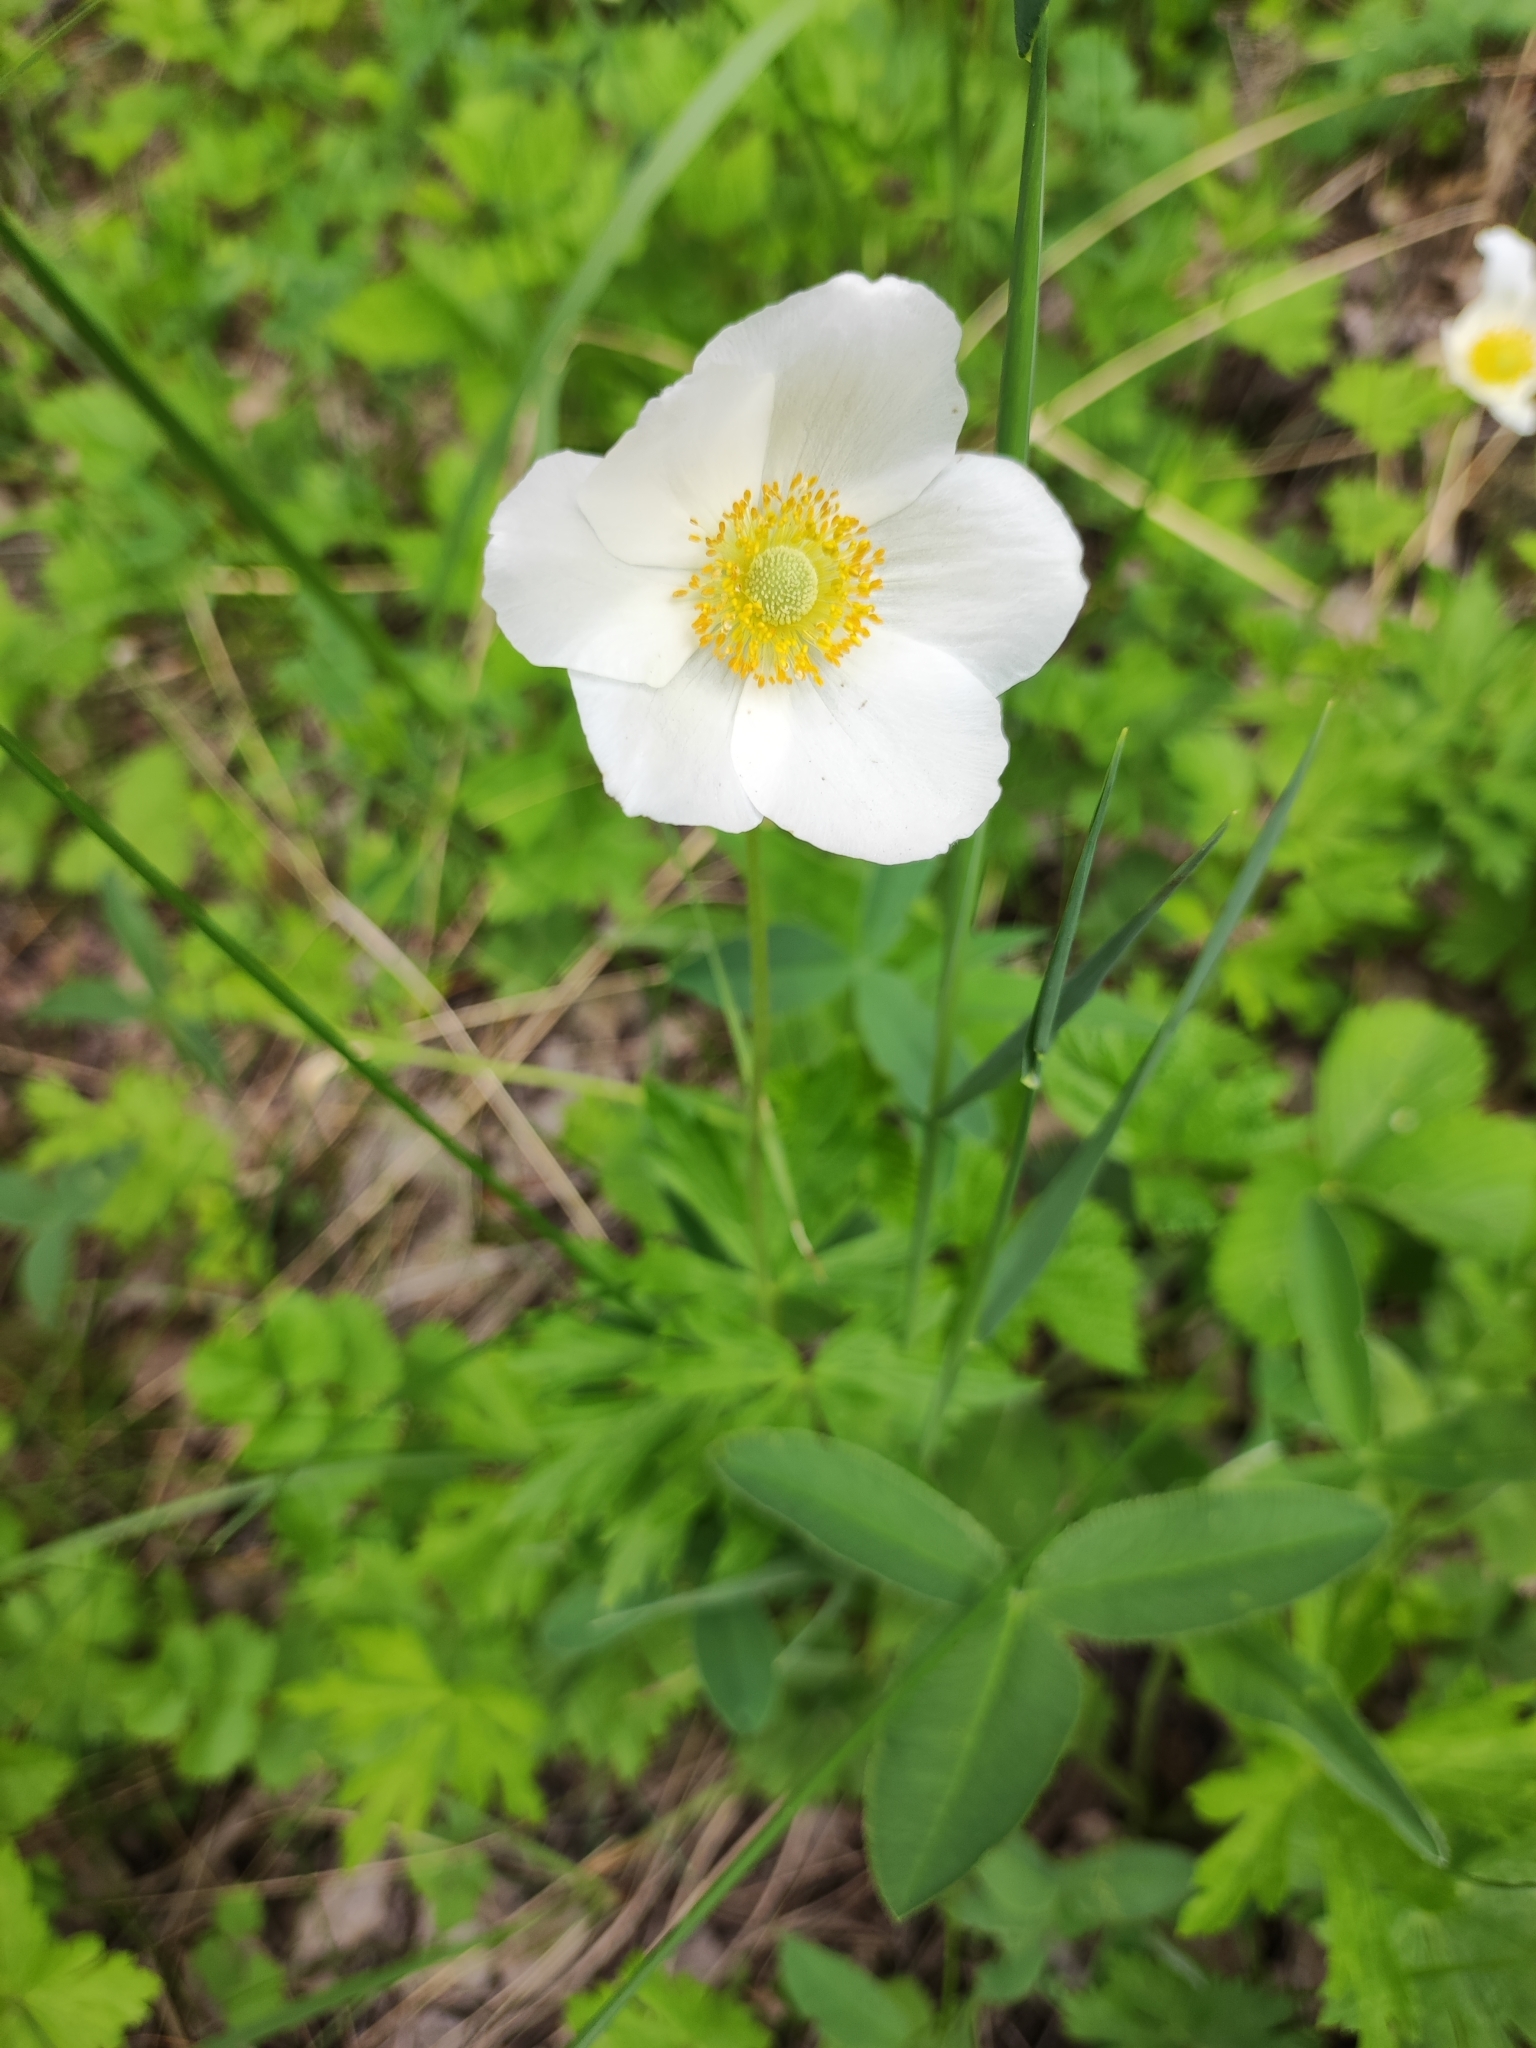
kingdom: Plantae
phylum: Tracheophyta
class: Magnoliopsida
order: Ranunculales
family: Ranunculaceae
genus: Anemone
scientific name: Anemone sylvestris
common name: Snowdrop anemone
